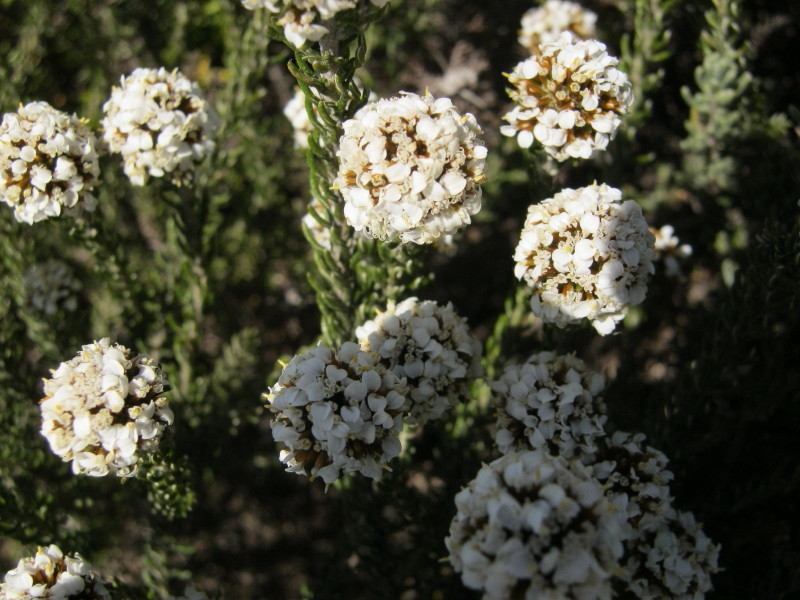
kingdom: Plantae
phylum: Tracheophyta
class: Magnoliopsida
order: Asterales
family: Asteraceae
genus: Disparago
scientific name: Disparago tortilis
